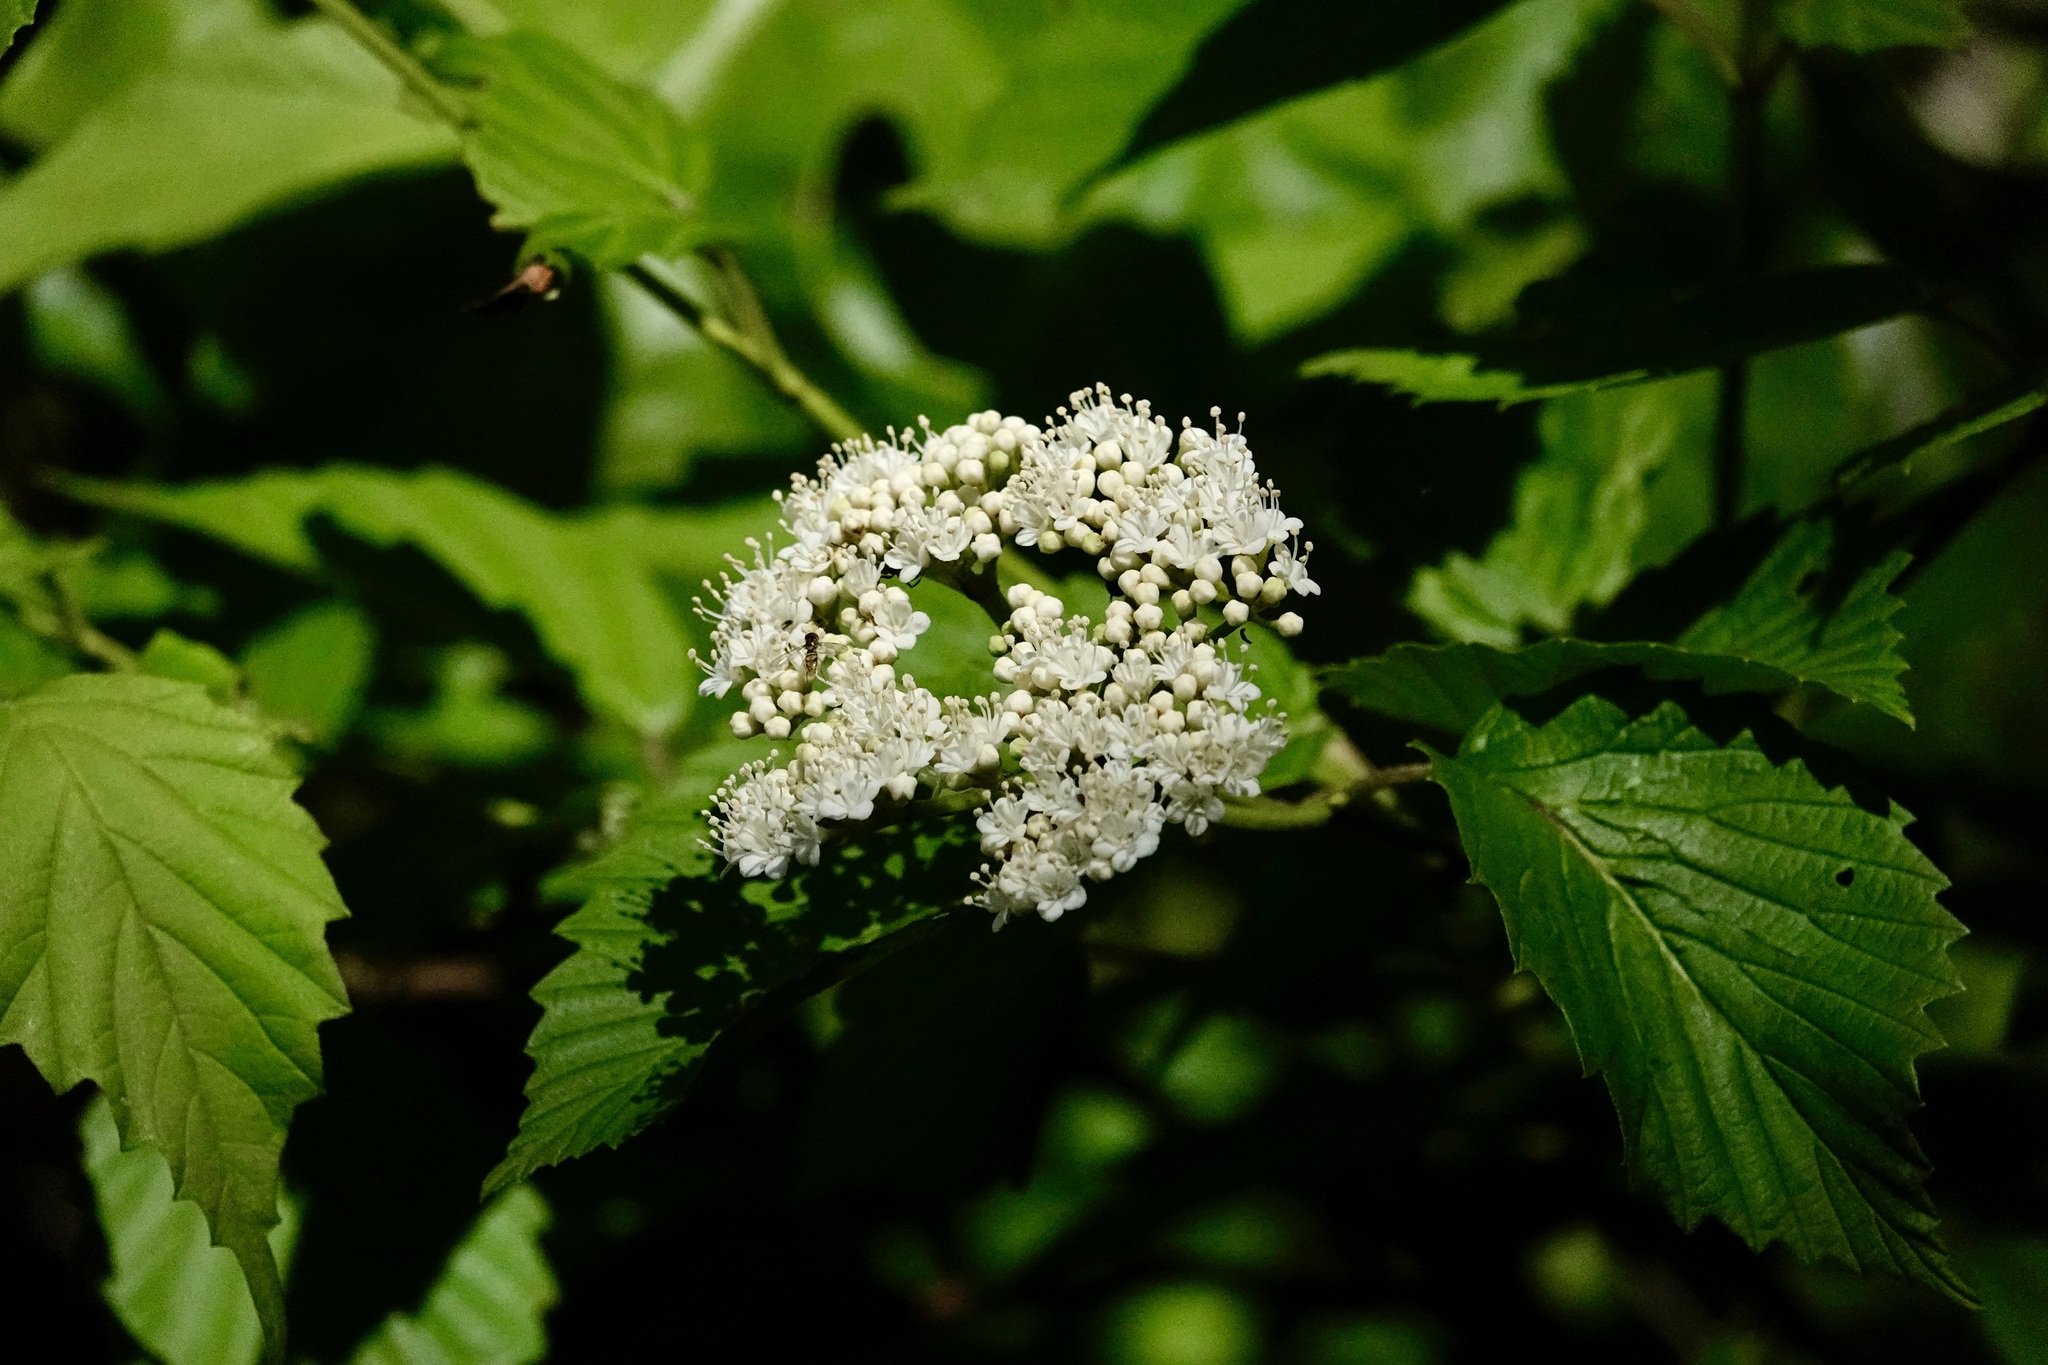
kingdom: Plantae
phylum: Tracheophyta
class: Magnoliopsida
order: Dipsacales
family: Viburnaceae
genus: Viburnum
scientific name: Viburnum dentatum
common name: Arrow-wood
